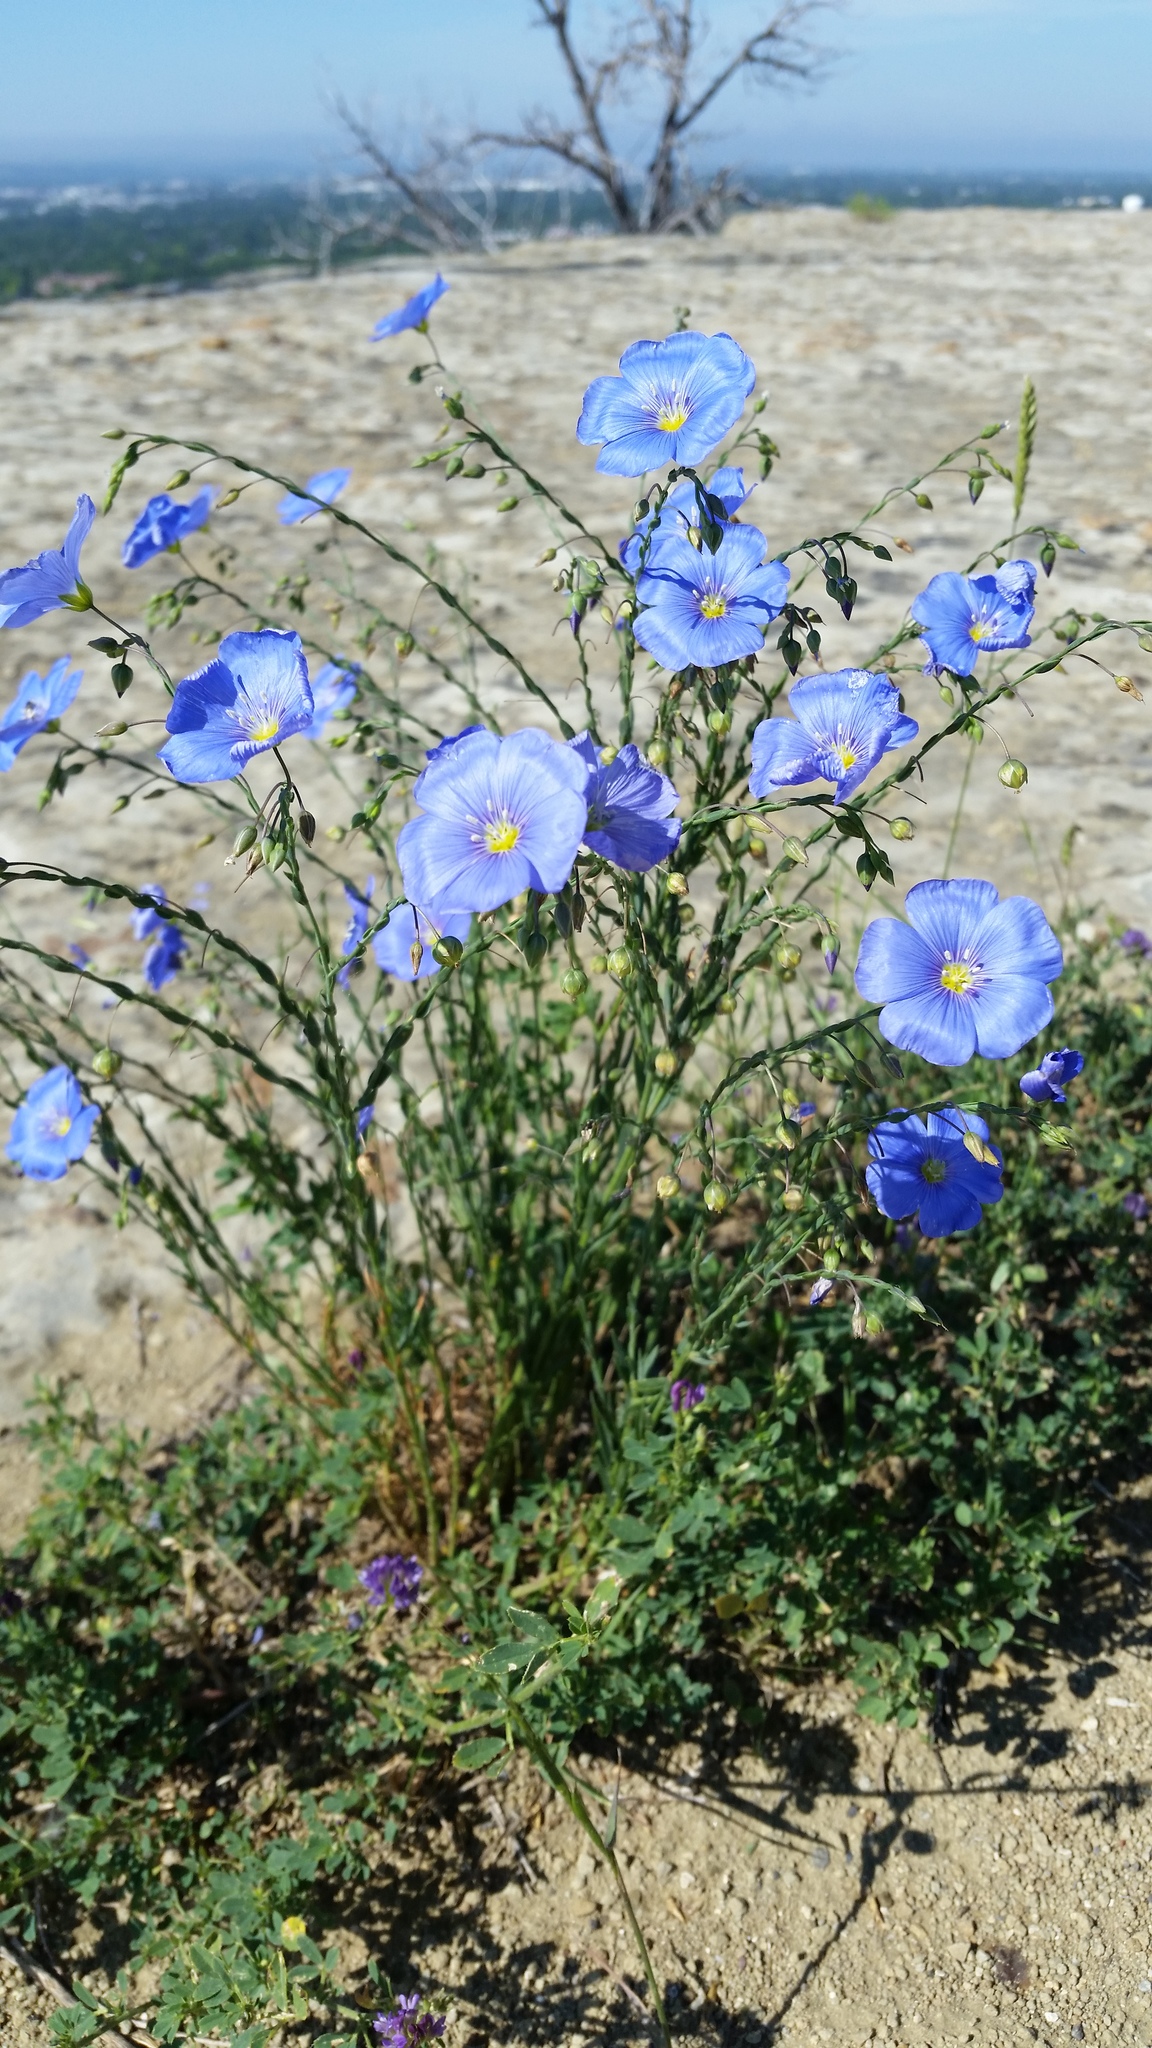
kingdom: Plantae
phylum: Tracheophyta
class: Magnoliopsida
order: Malpighiales
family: Linaceae
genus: Linum
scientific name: Linum lewisii
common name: Prairie flax
